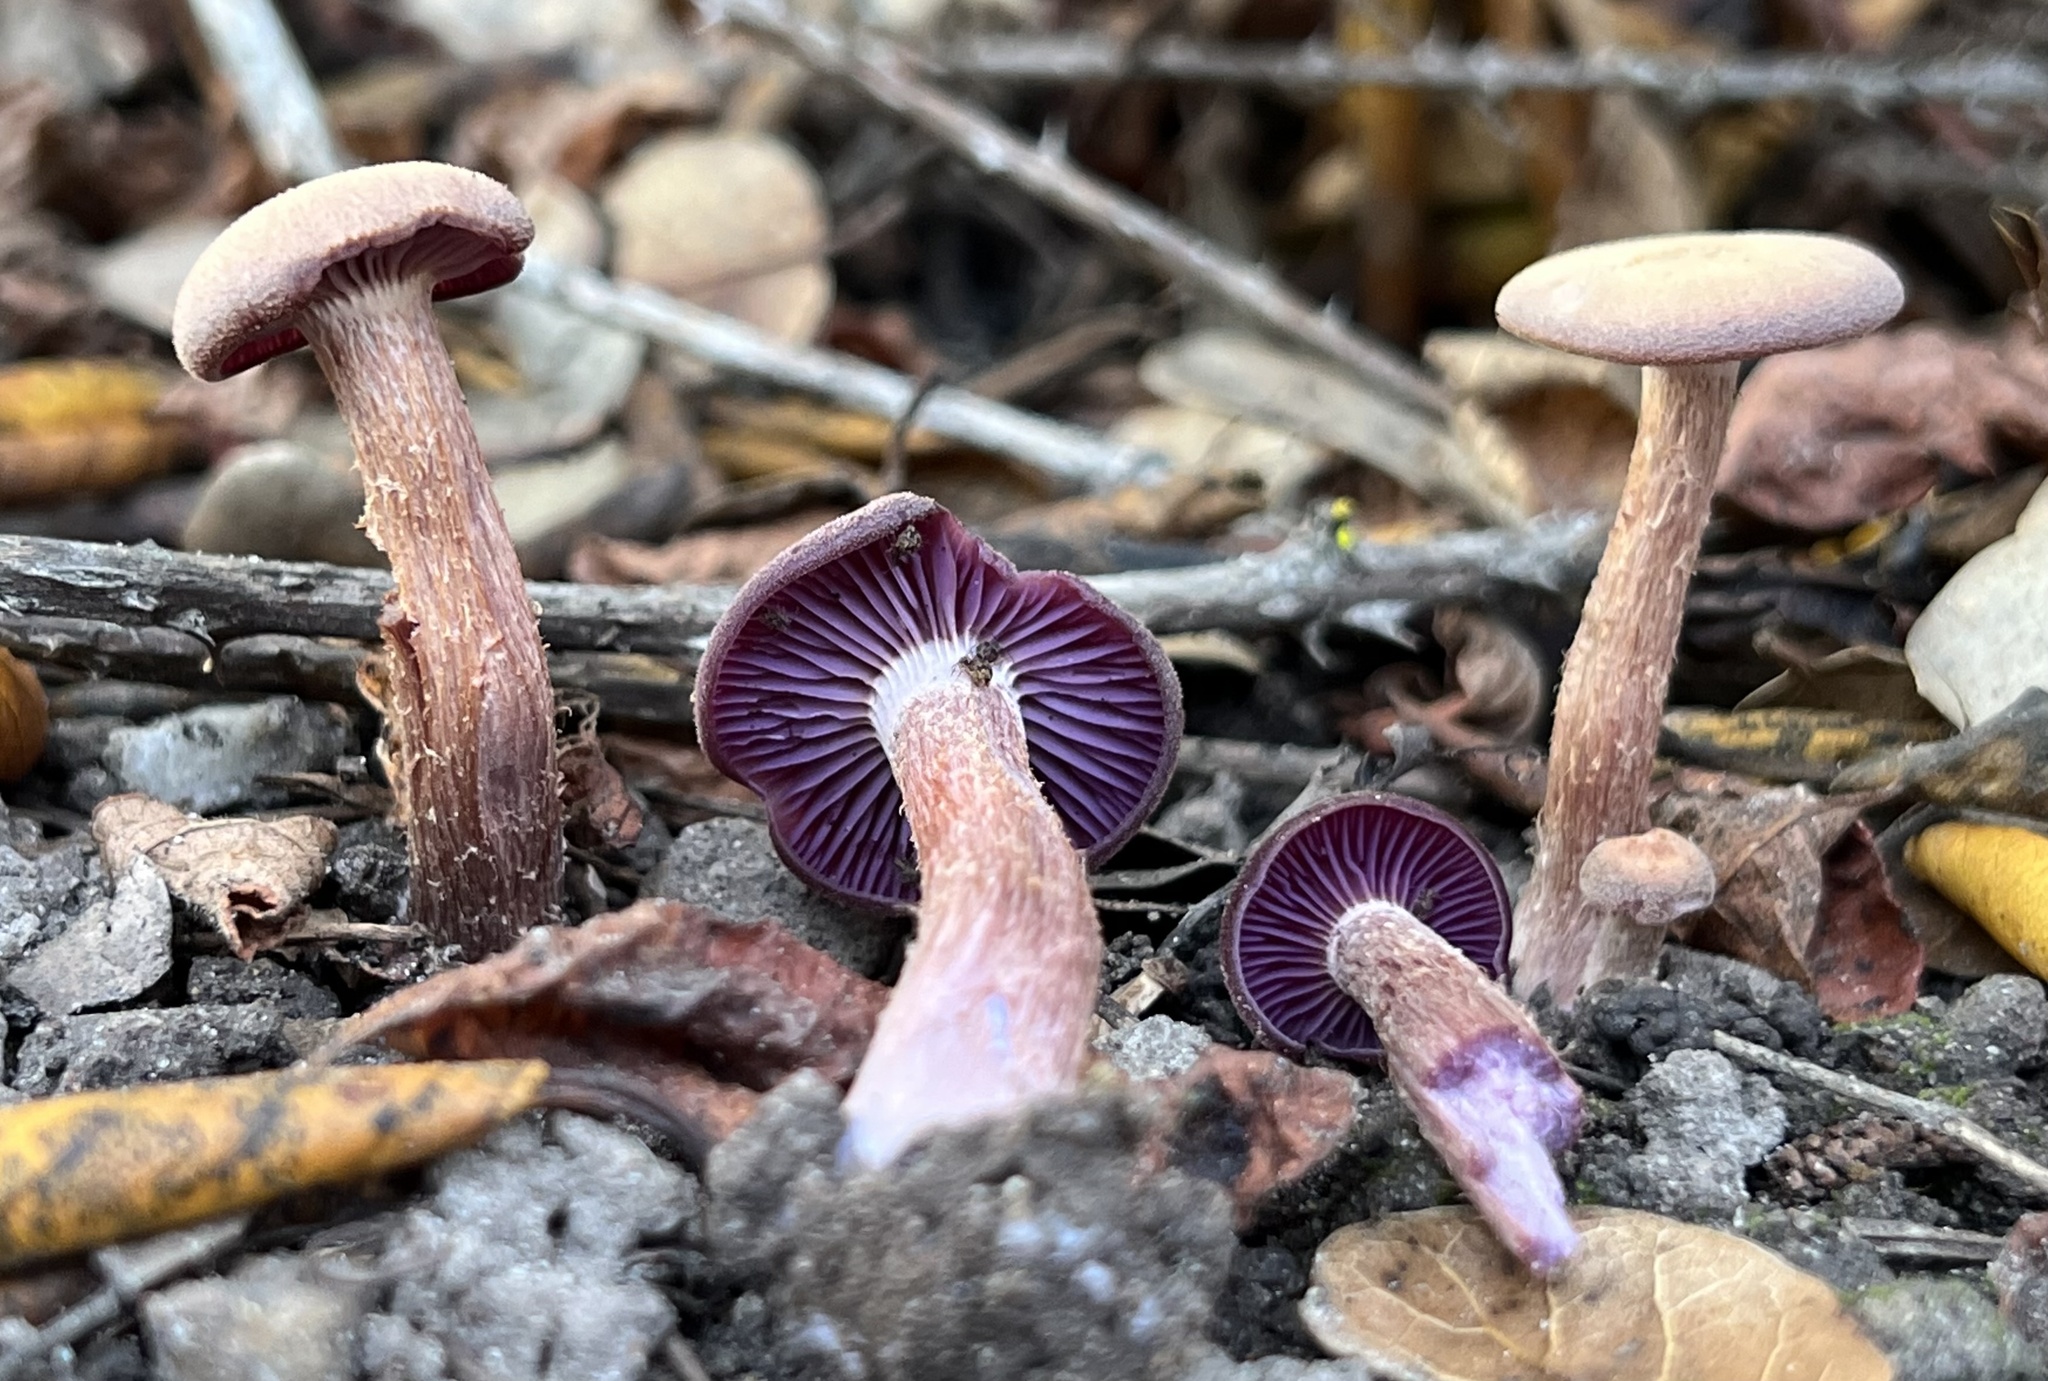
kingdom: Fungi
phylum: Basidiomycota
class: Agaricomycetes
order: Agaricales
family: Hydnangiaceae
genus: Laccaria
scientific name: Laccaria amethysteo-occidentalis
